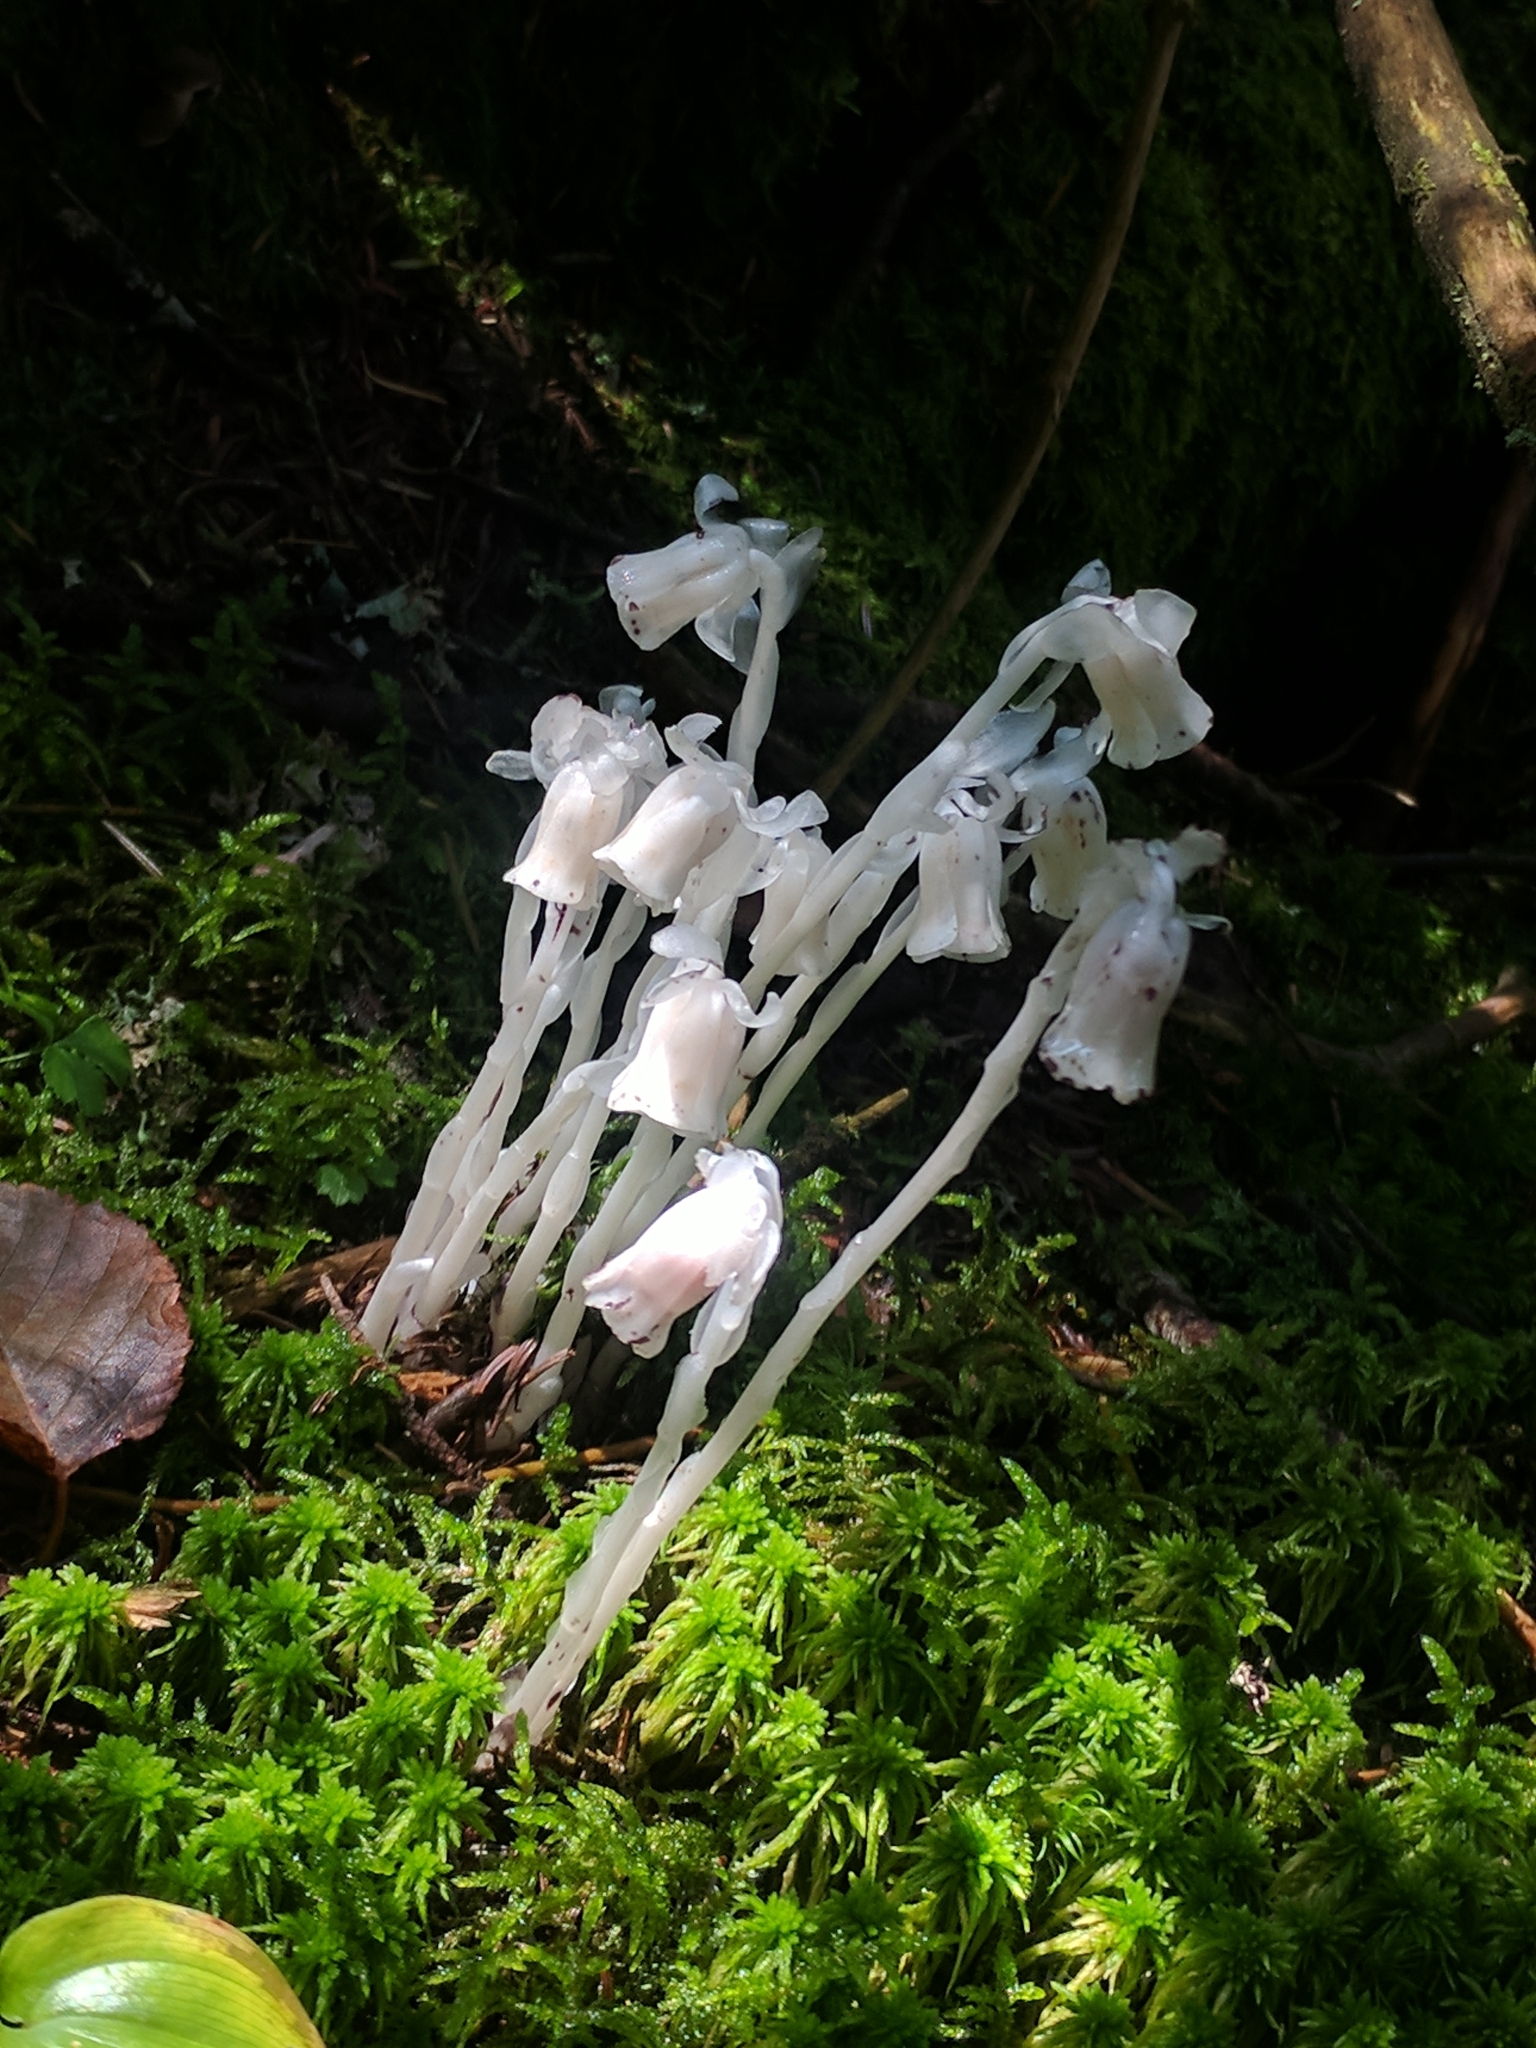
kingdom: Plantae
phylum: Tracheophyta
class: Magnoliopsida
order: Ericales
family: Ericaceae
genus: Monotropa
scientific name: Monotropa uniflora
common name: Convulsion root
